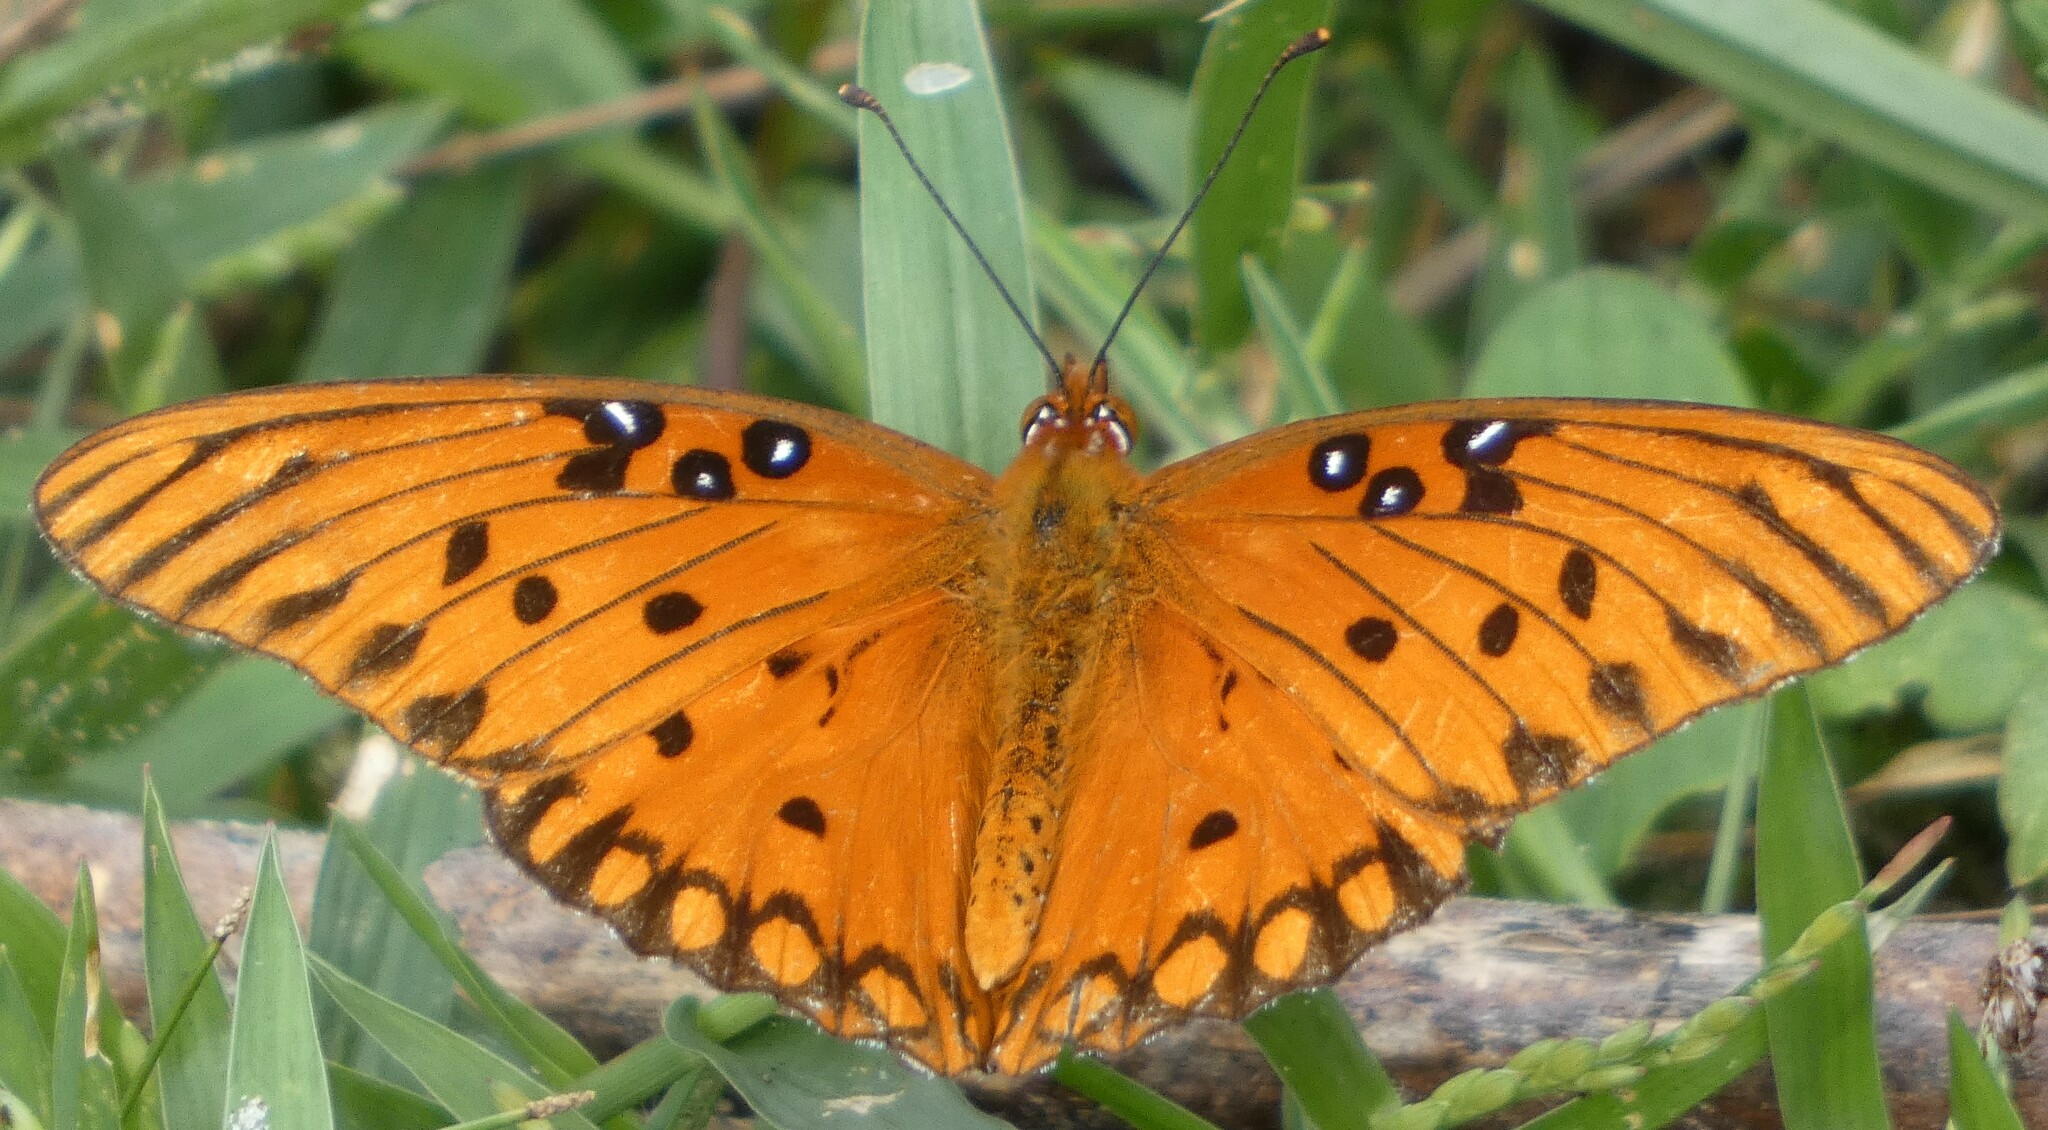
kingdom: Animalia
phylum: Arthropoda
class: Insecta
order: Lepidoptera
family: Nymphalidae
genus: Dione
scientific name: Dione vanillae
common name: Gulf fritillary
